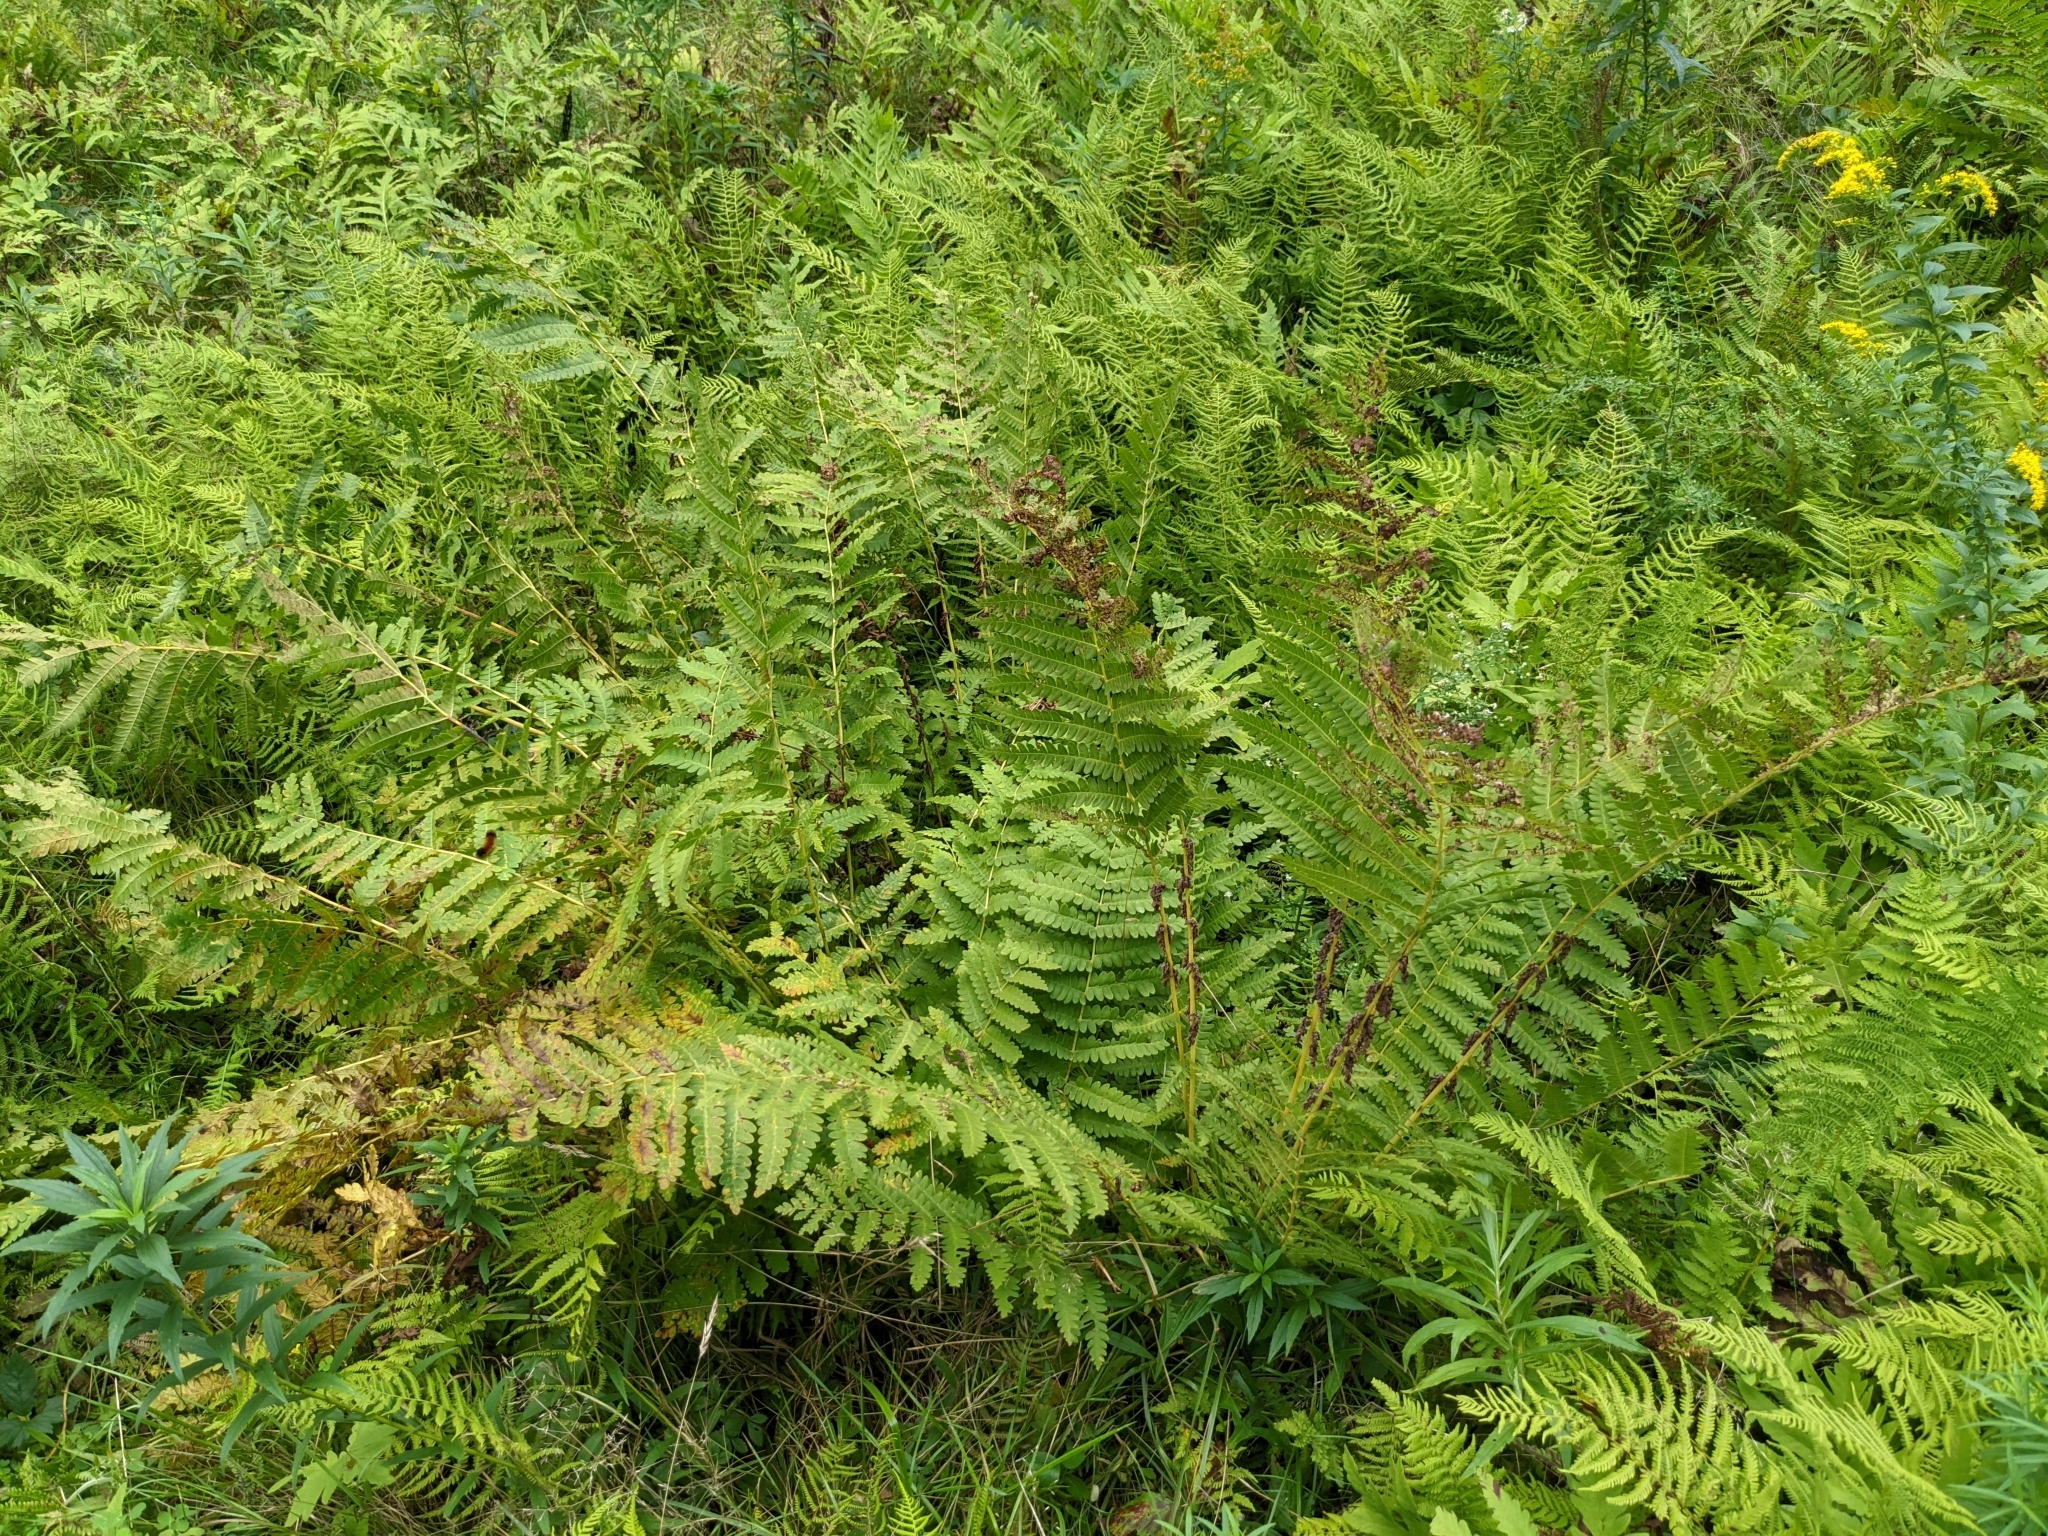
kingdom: Plantae
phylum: Tracheophyta
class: Polypodiopsida
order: Osmundales
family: Osmundaceae
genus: Claytosmunda
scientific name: Claytosmunda claytoniana
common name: Clayton's fern
